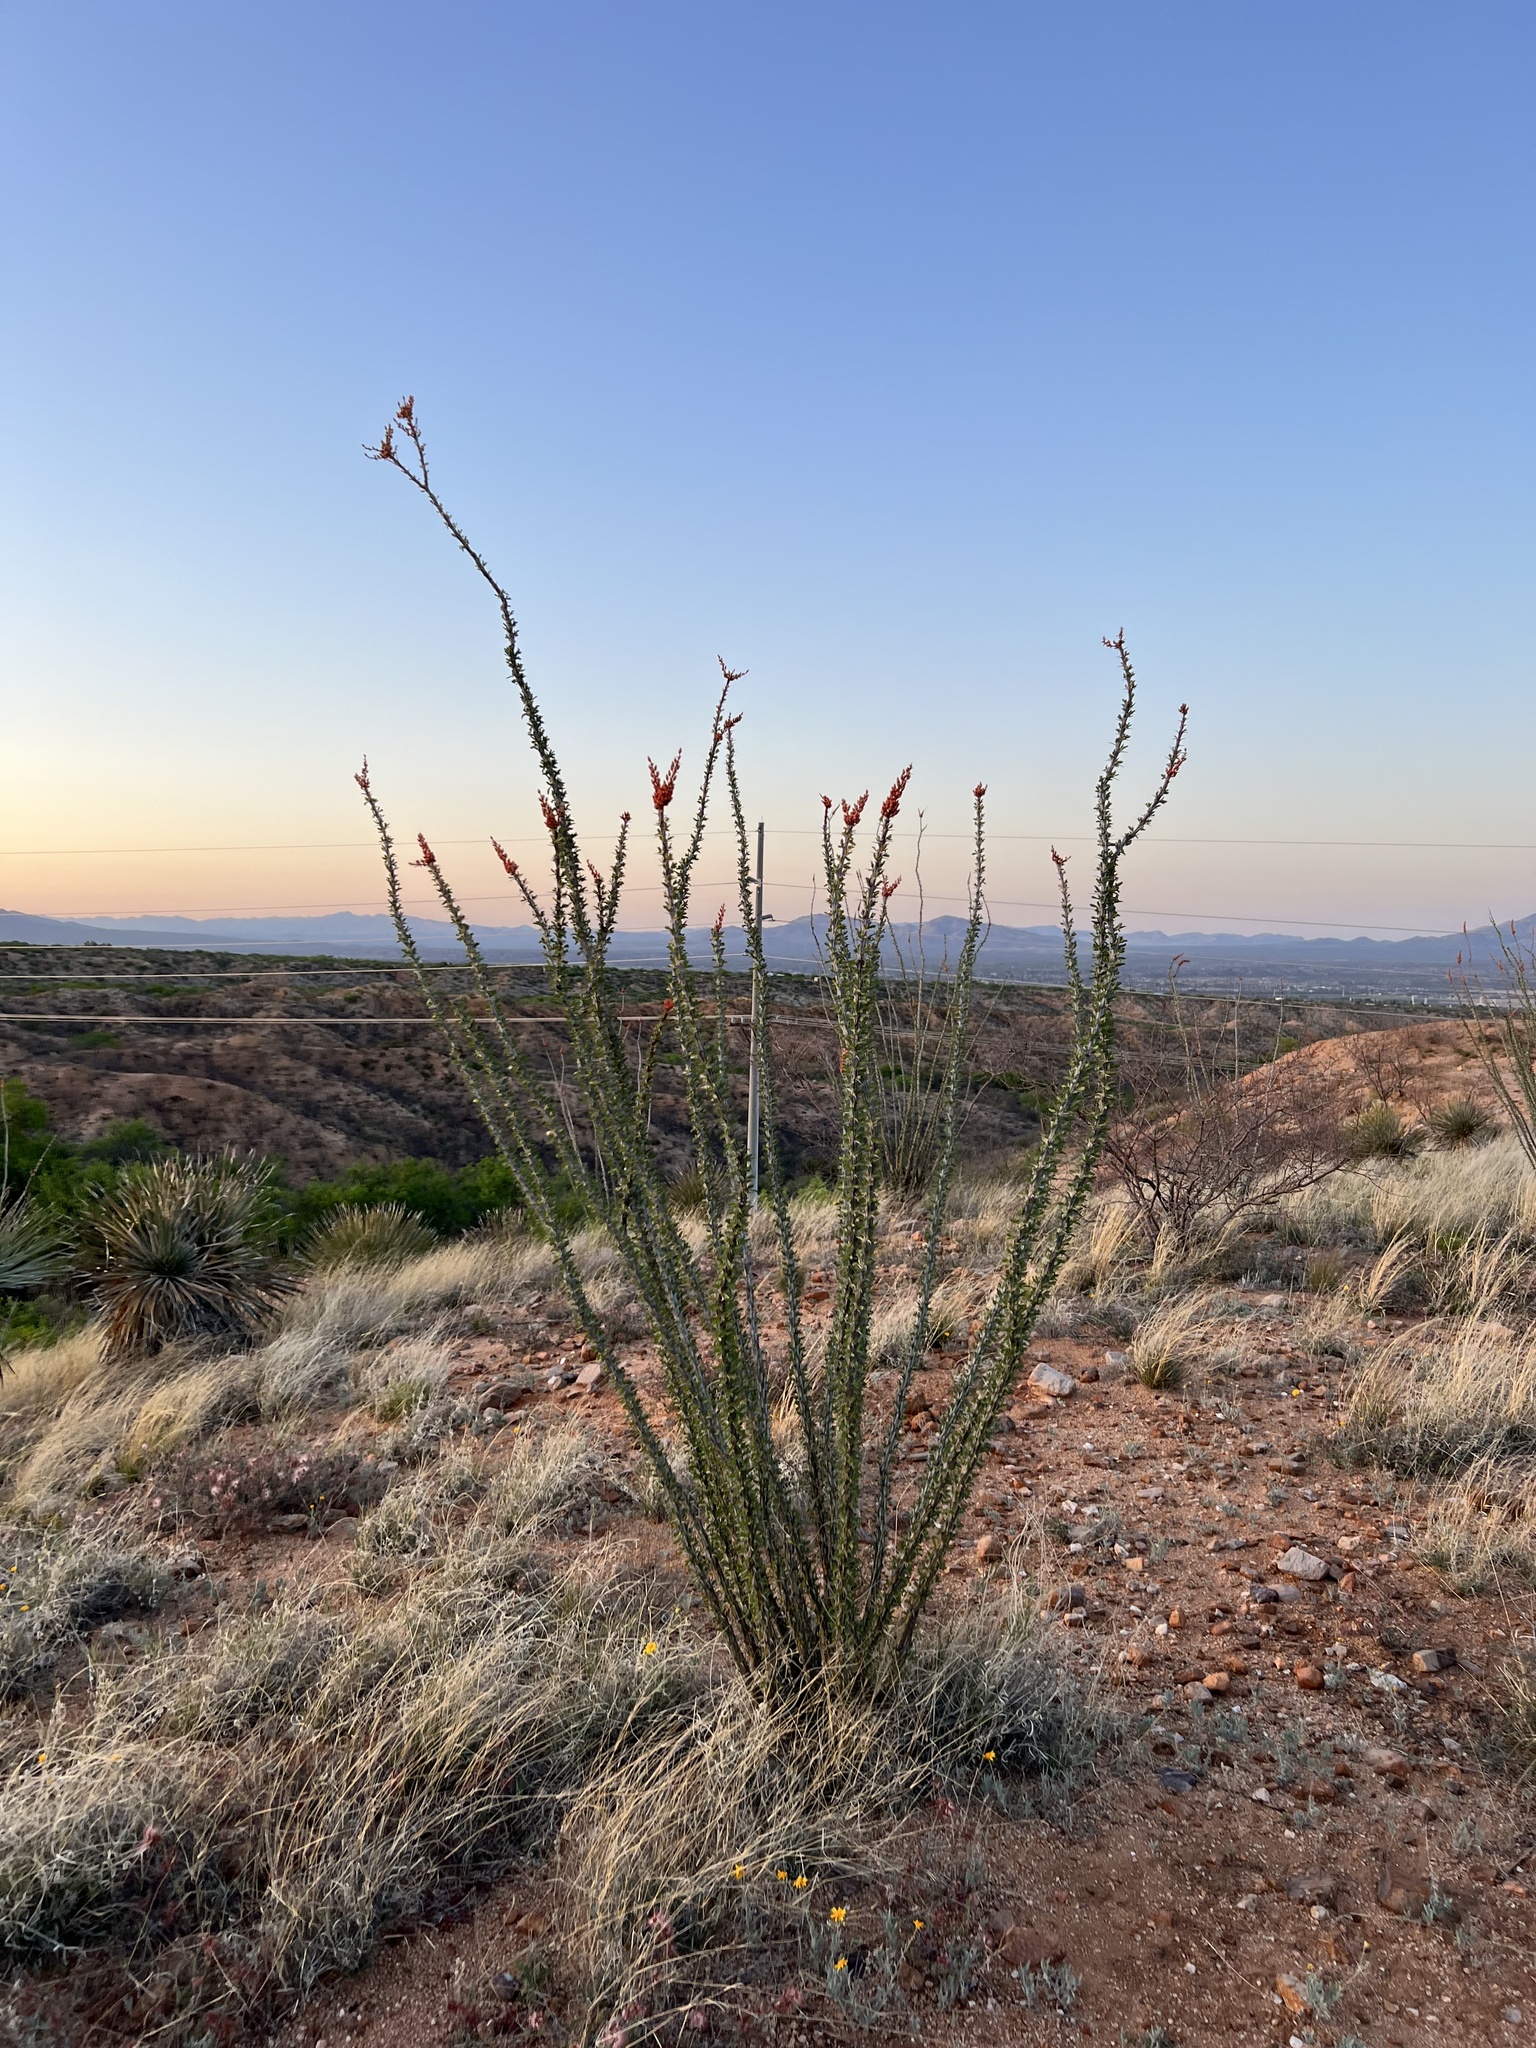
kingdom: Plantae
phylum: Tracheophyta
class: Magnoliopsida
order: Ericales
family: Fouquieriaceae
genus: Fouquieria
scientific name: Fouquieria splendens
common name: Vine-cactus
